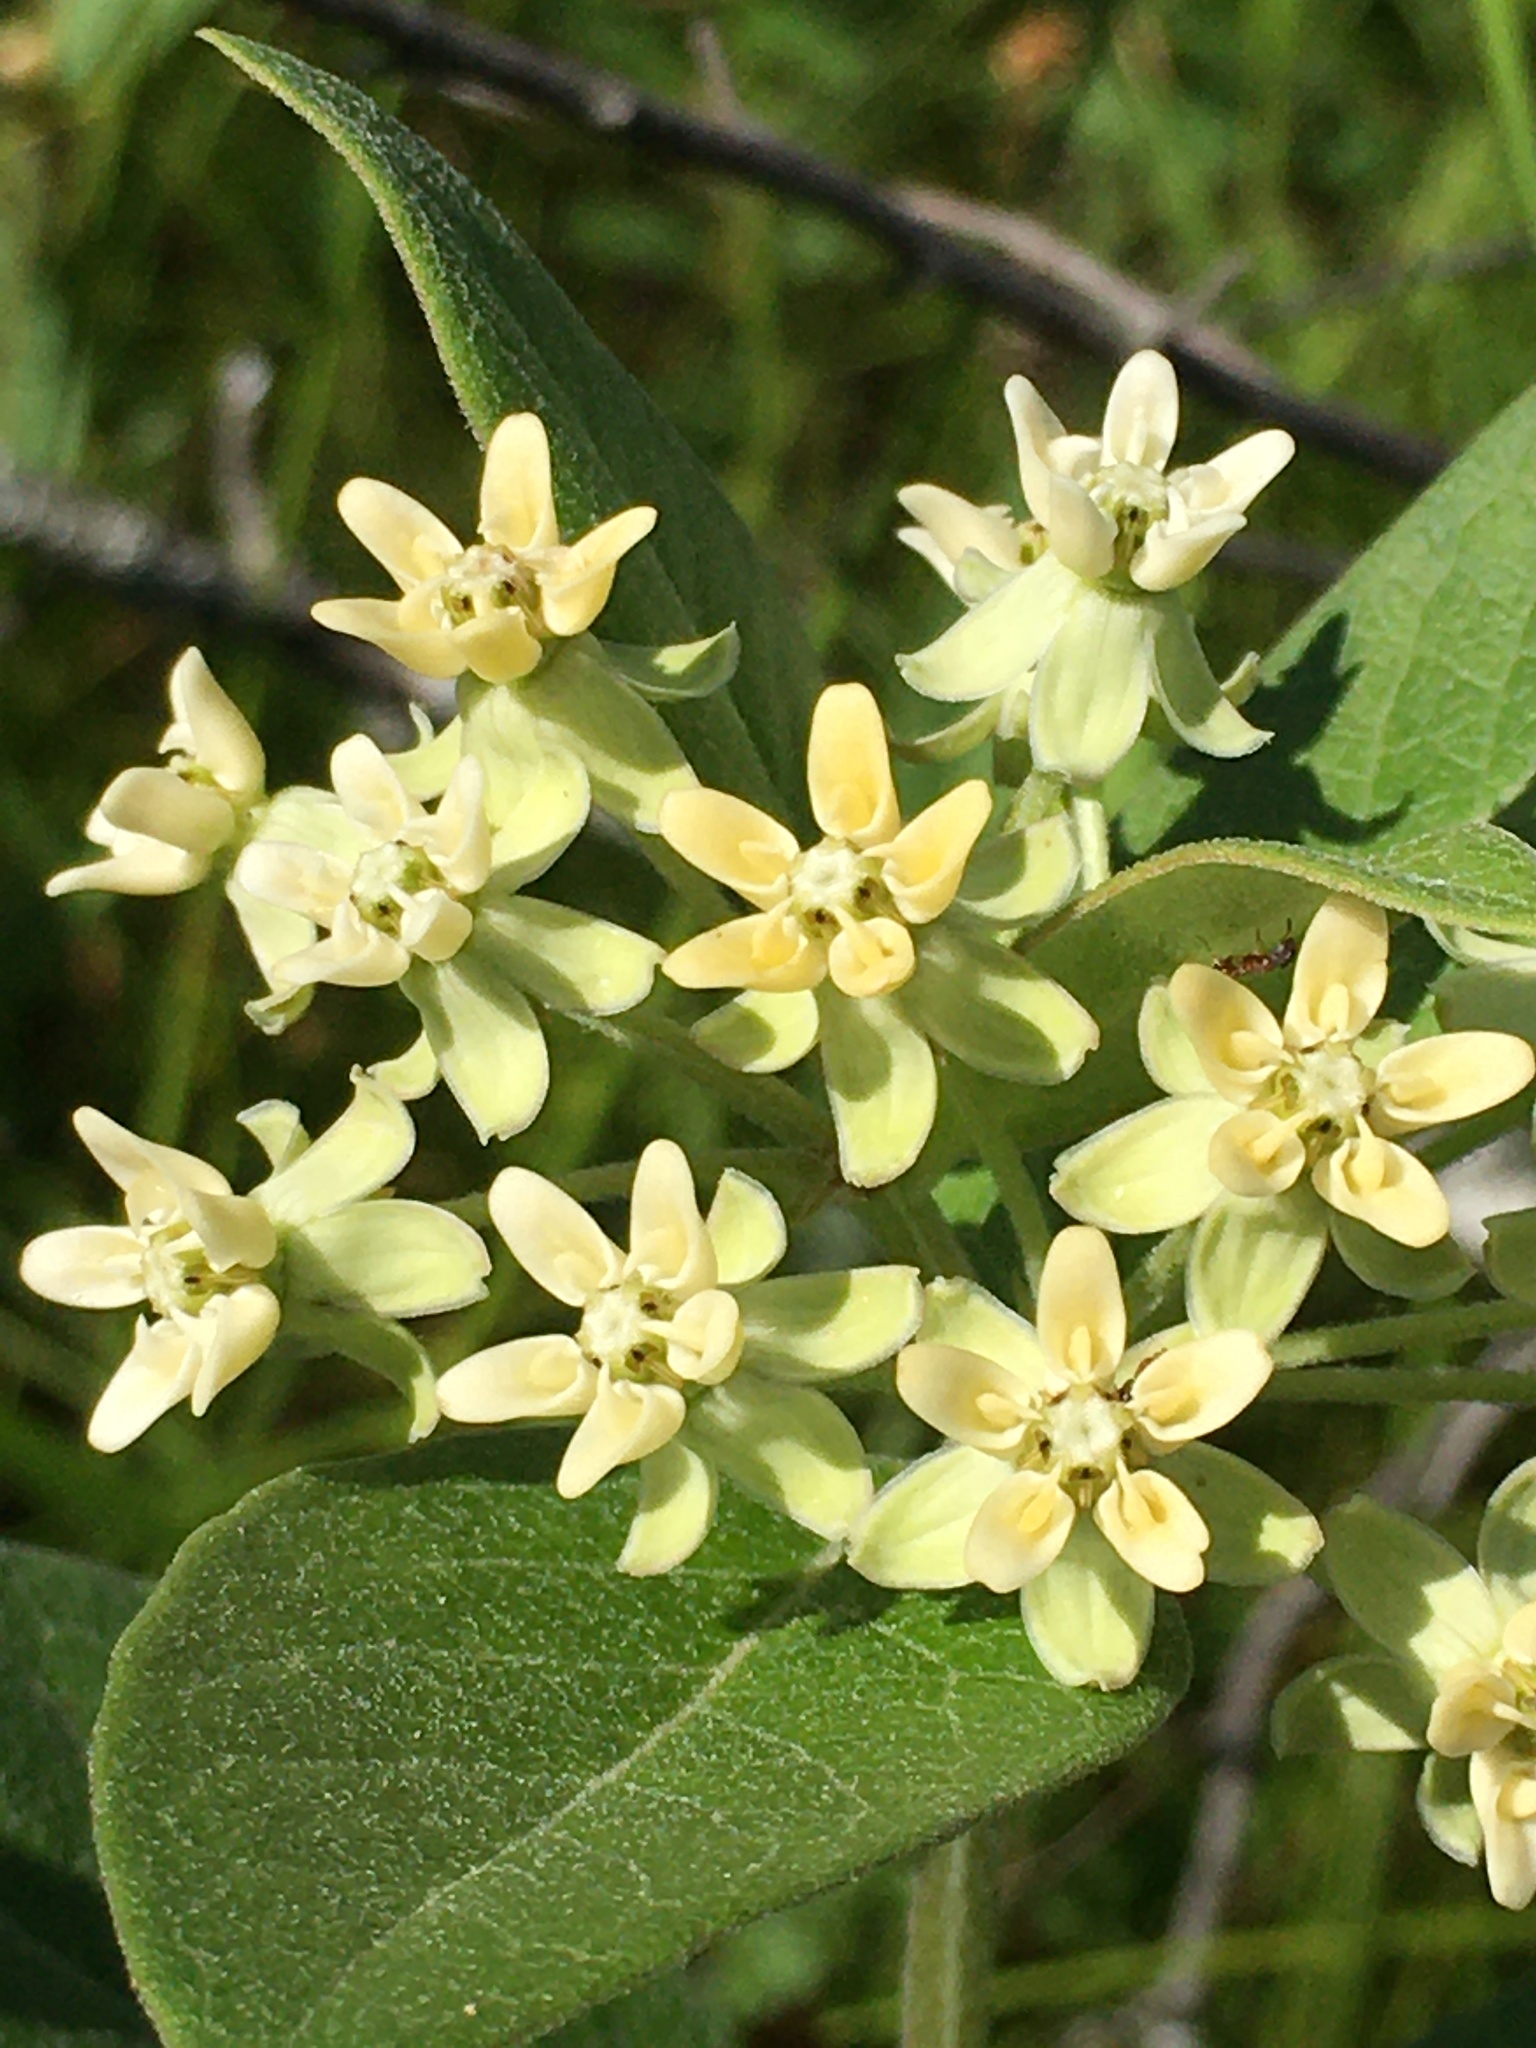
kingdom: Plantae
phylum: Tracheophyta
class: Magnoliopsida
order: Gentianales
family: Apocynaceae
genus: Asclepias
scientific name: Asclepias ovalifolia
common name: Dwarf milkweed
